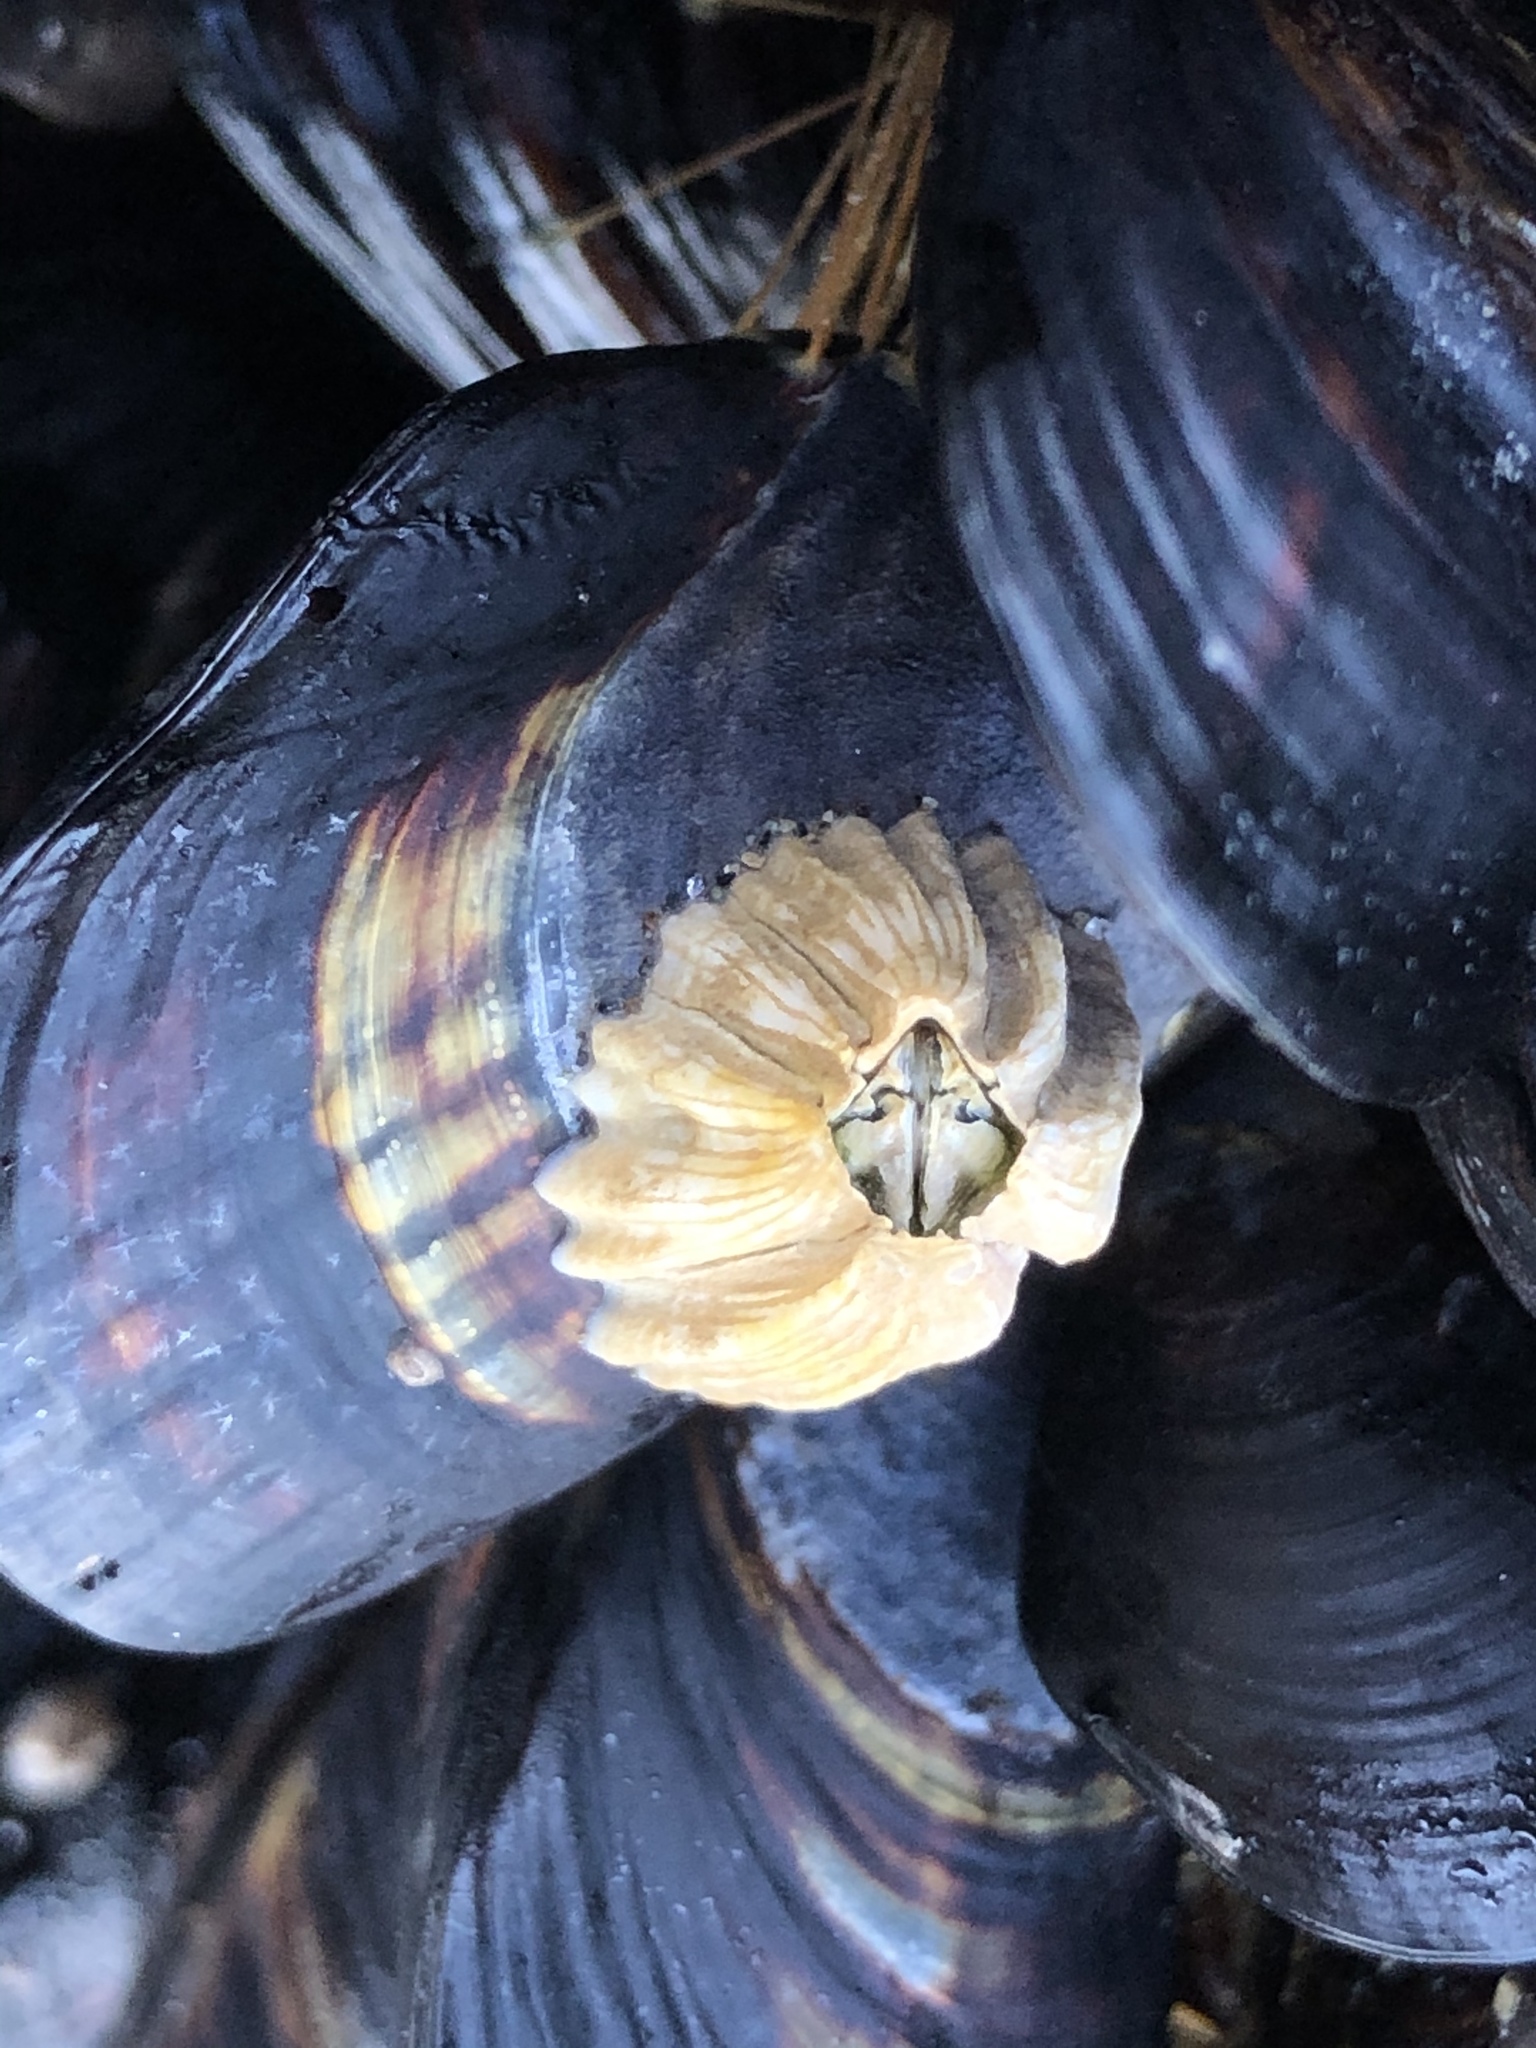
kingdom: Animalia
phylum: Arthropoda
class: Maxillopoda
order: Sessilia
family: Balanidae
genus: Balanus
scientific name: Balanus glandula
